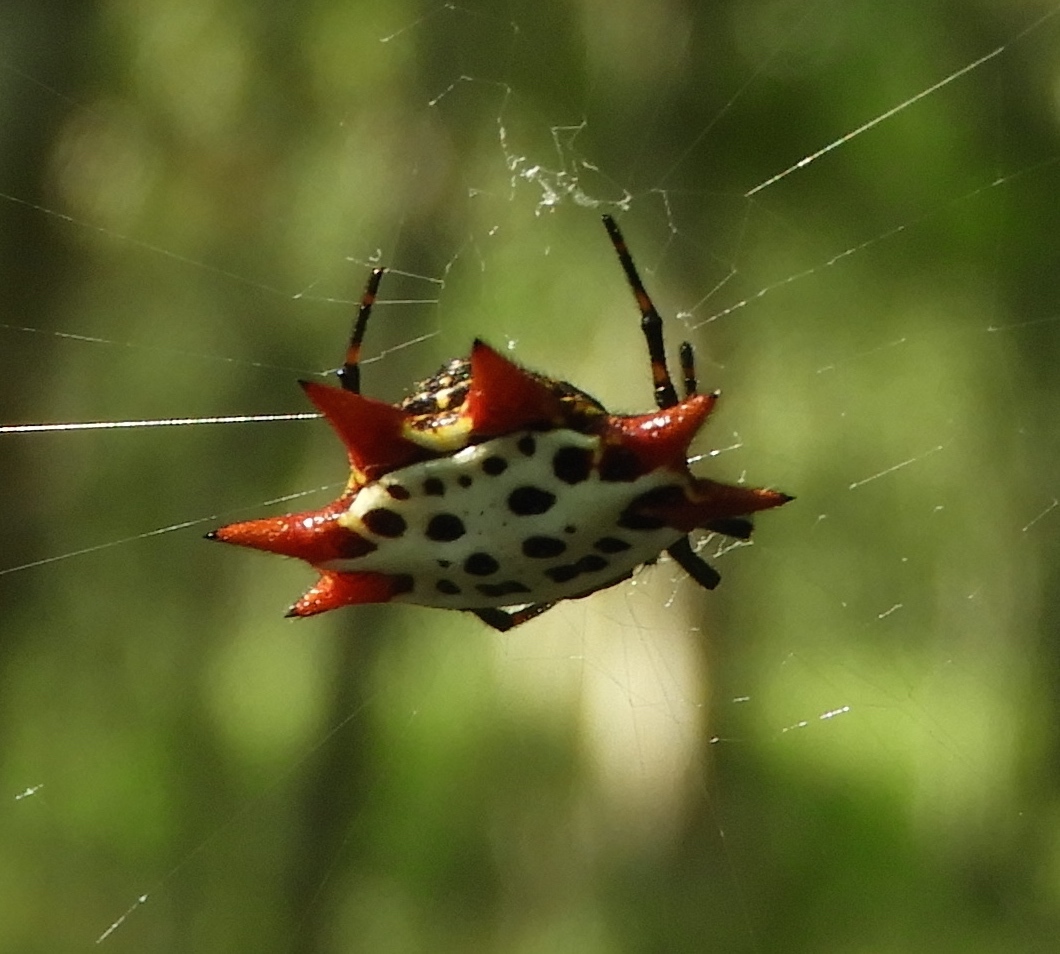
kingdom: Animalia
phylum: Arthropoda
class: Arachnida
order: Araneae
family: Araneidae
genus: Gasteracantha
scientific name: Gasteracantha cancriformis
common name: Orb weavers
